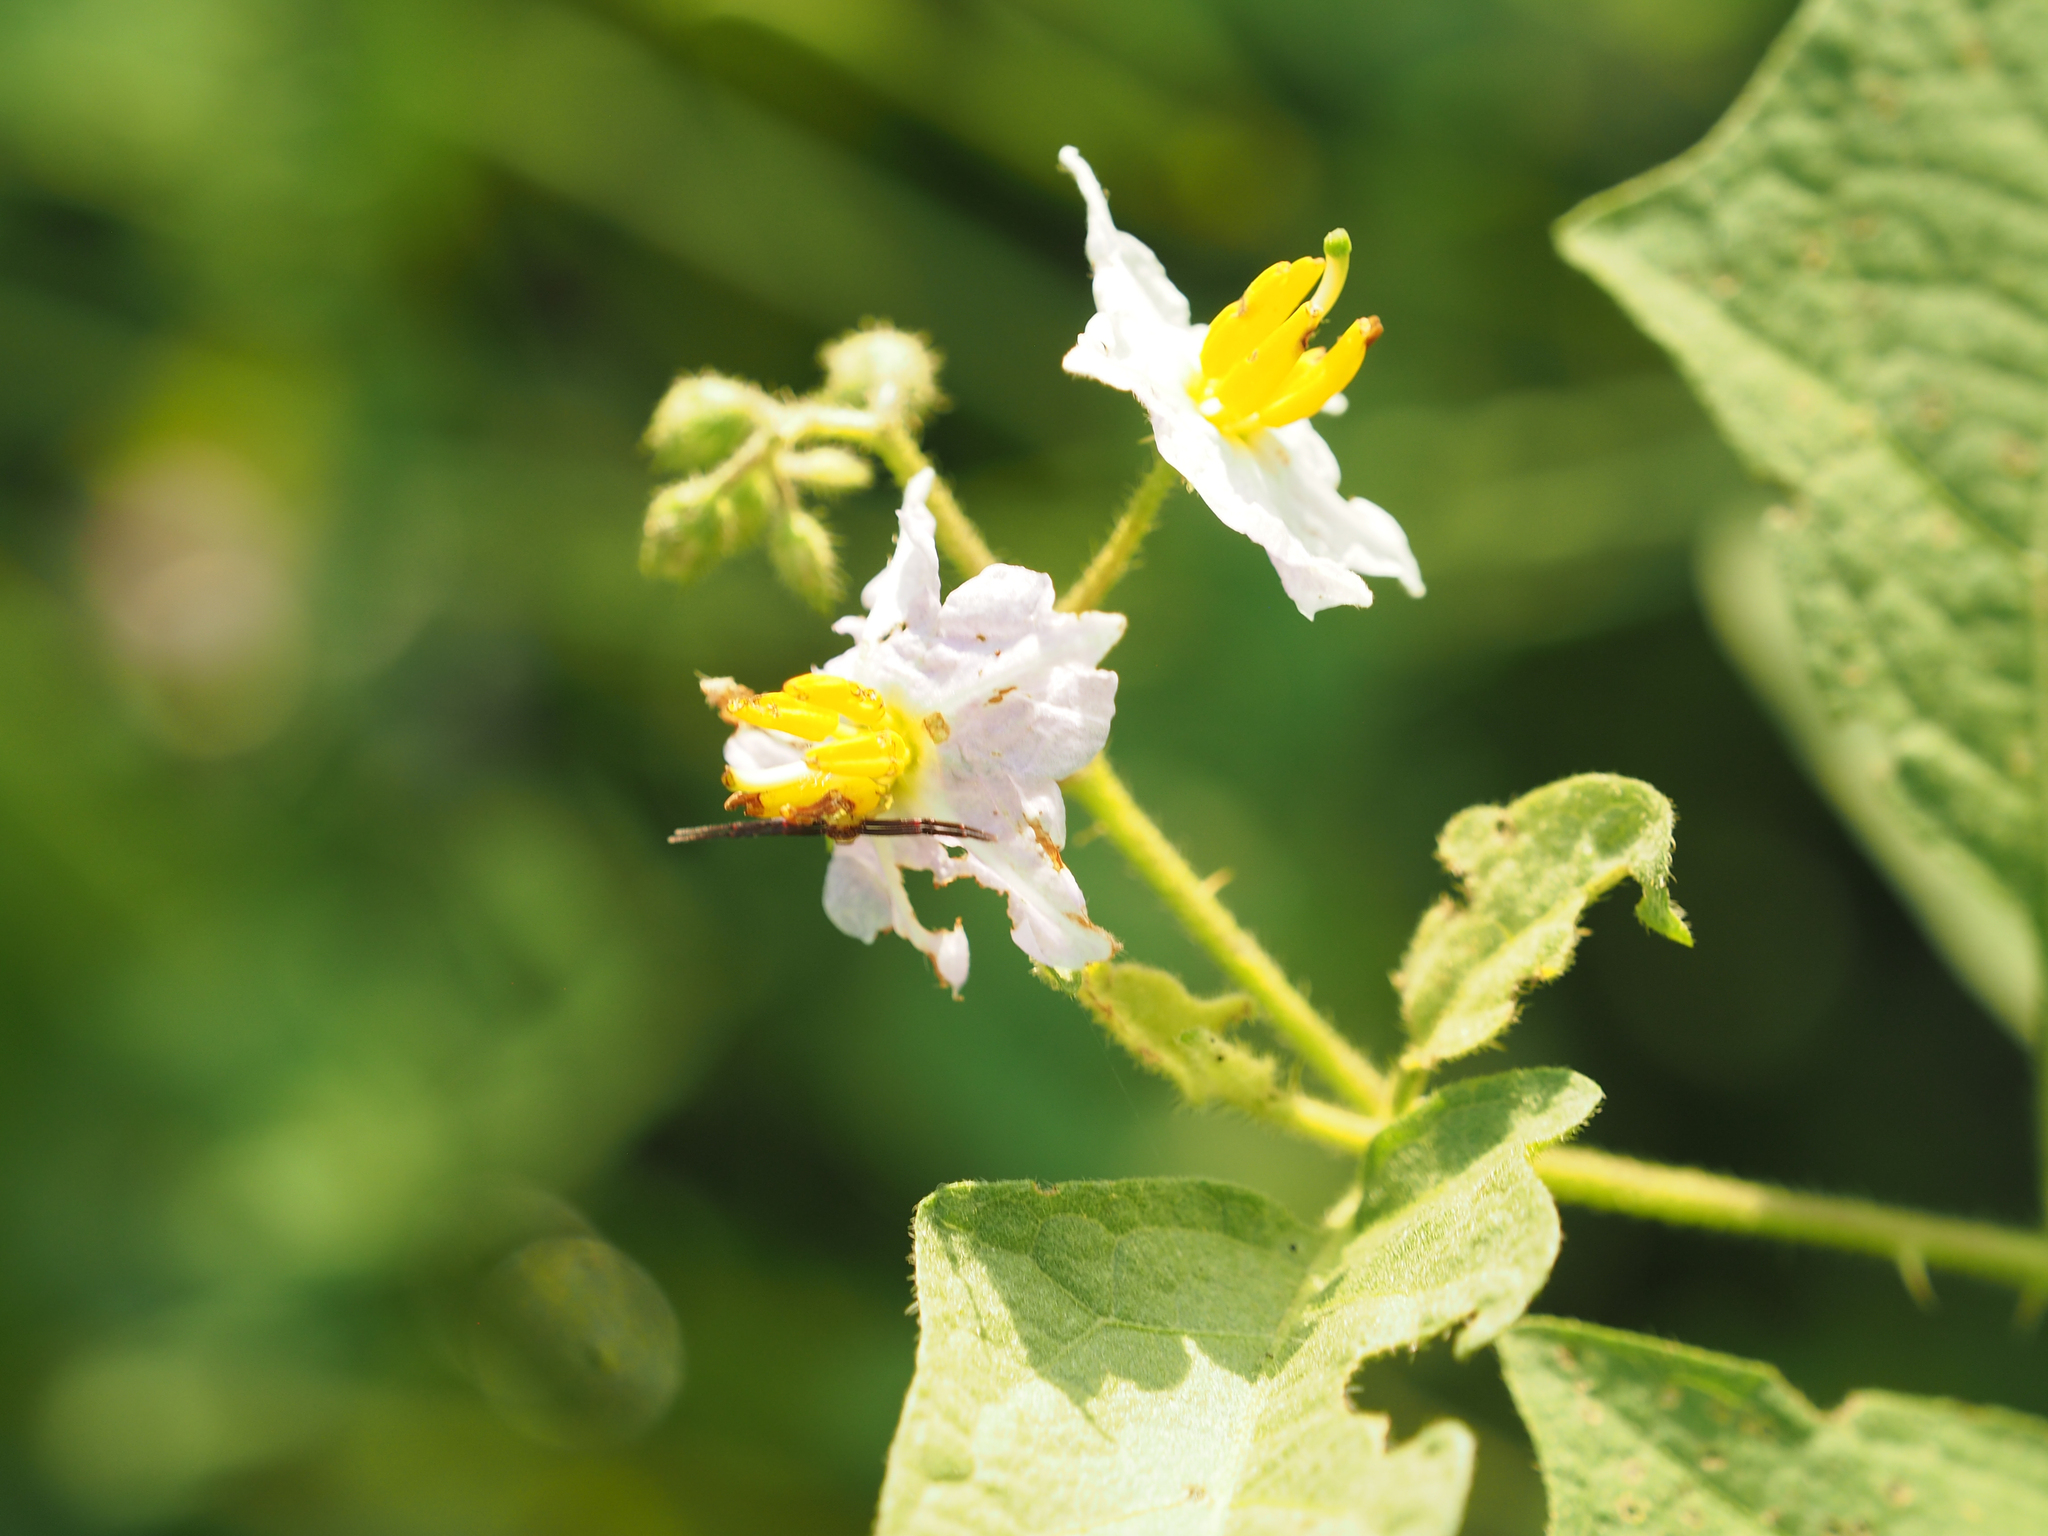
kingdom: Plantae
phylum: Tracheophyta
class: Magnoliopsida
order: Solanales
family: Solanaceae
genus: Solanum
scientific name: Solanum carolinense
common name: Horse-nettle
